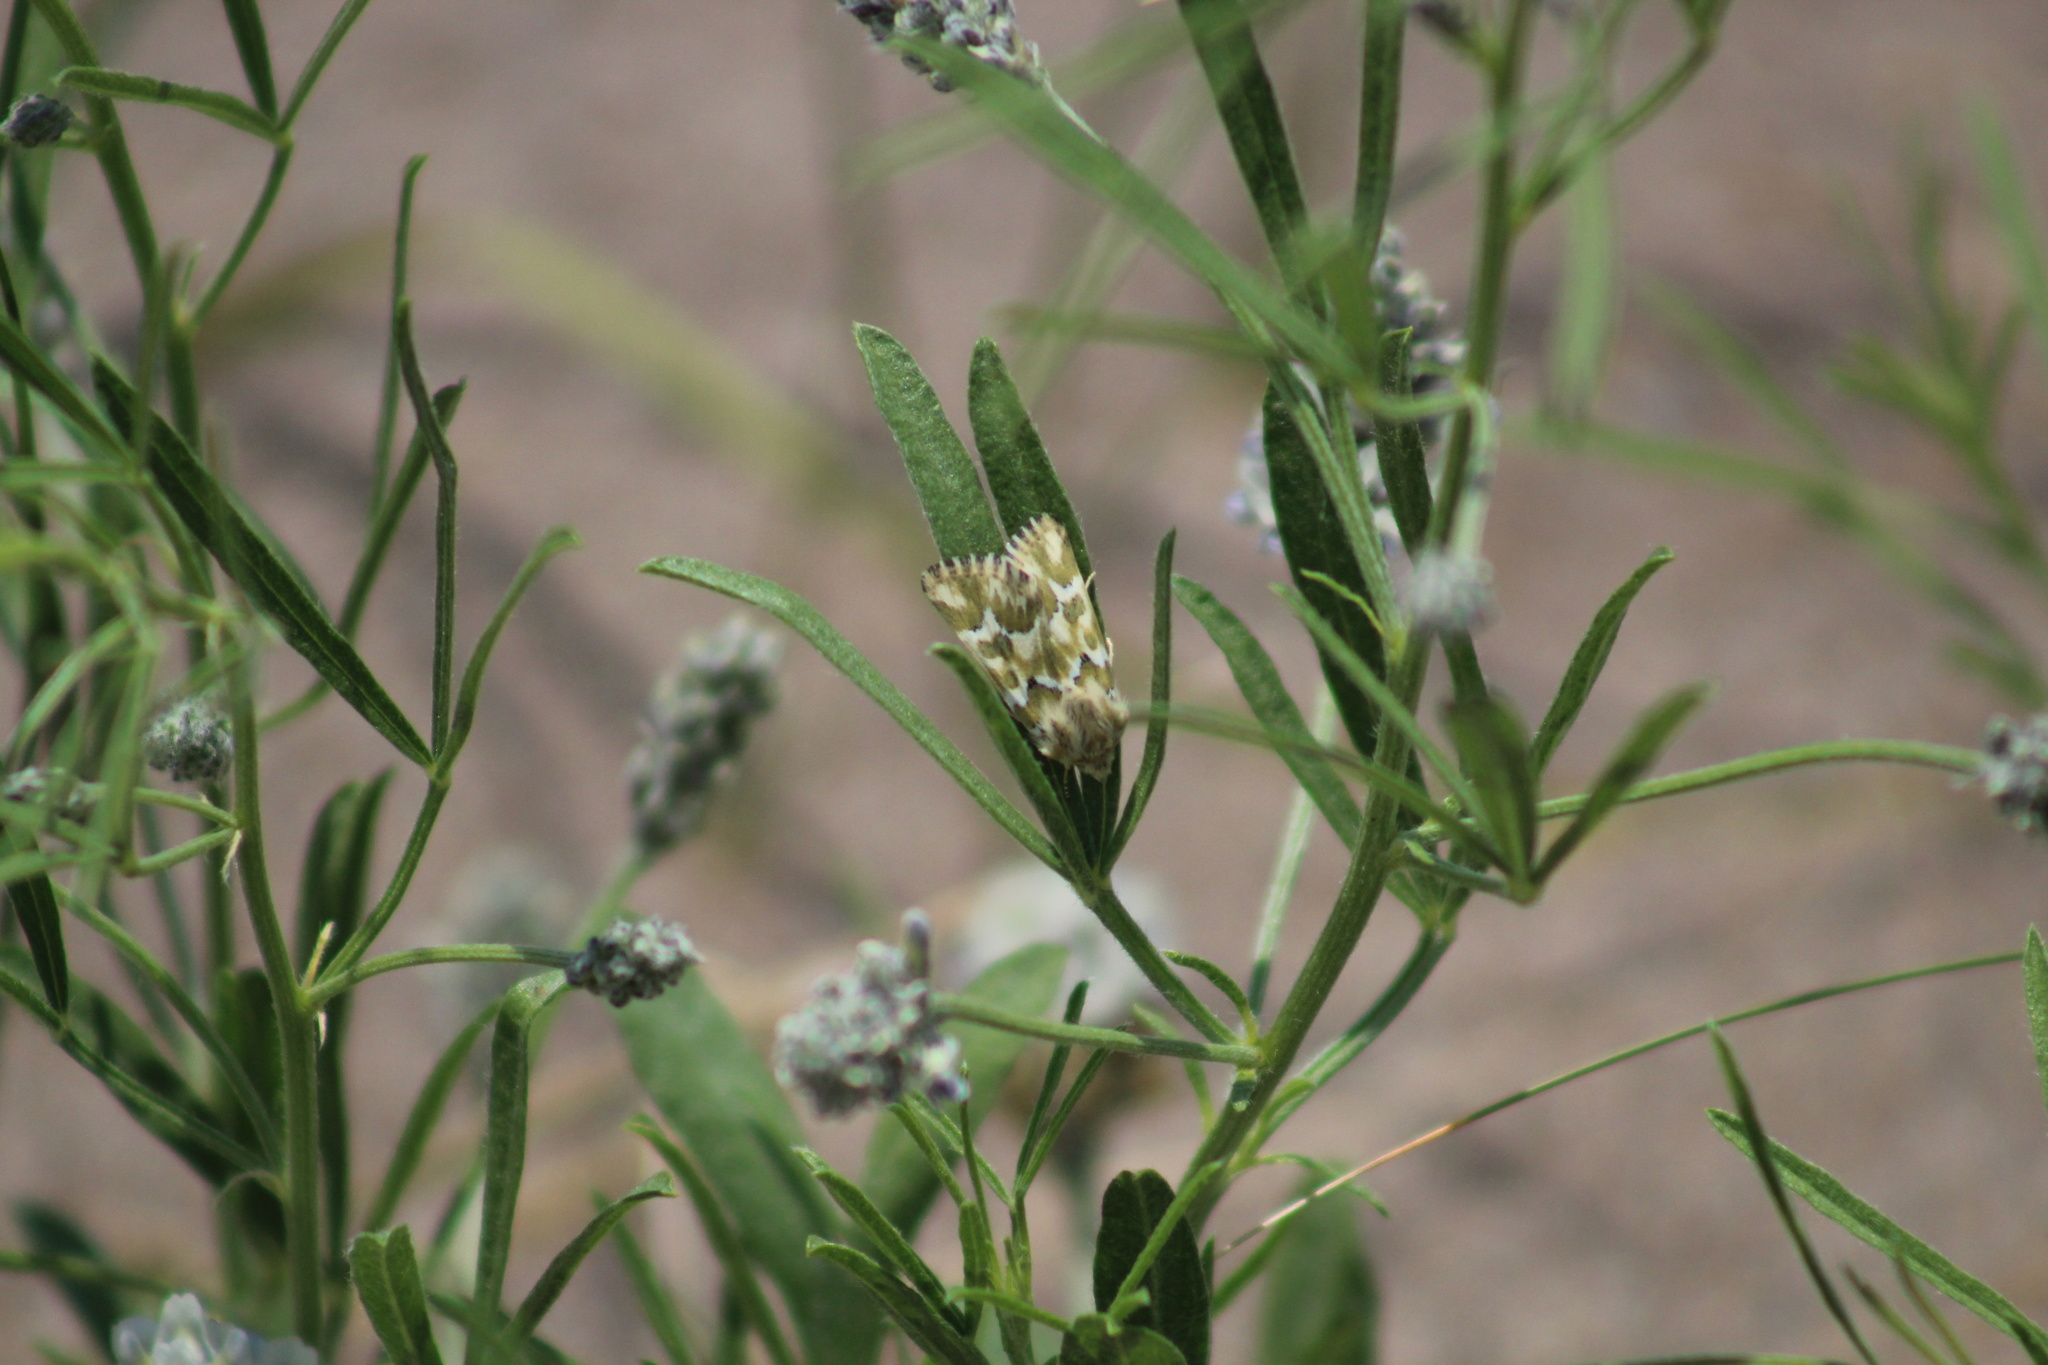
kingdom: Animalia
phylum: Arthropoda
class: Insecta
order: Lepidoptera
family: Noctuidae
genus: Schinia
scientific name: Schinia meadi
